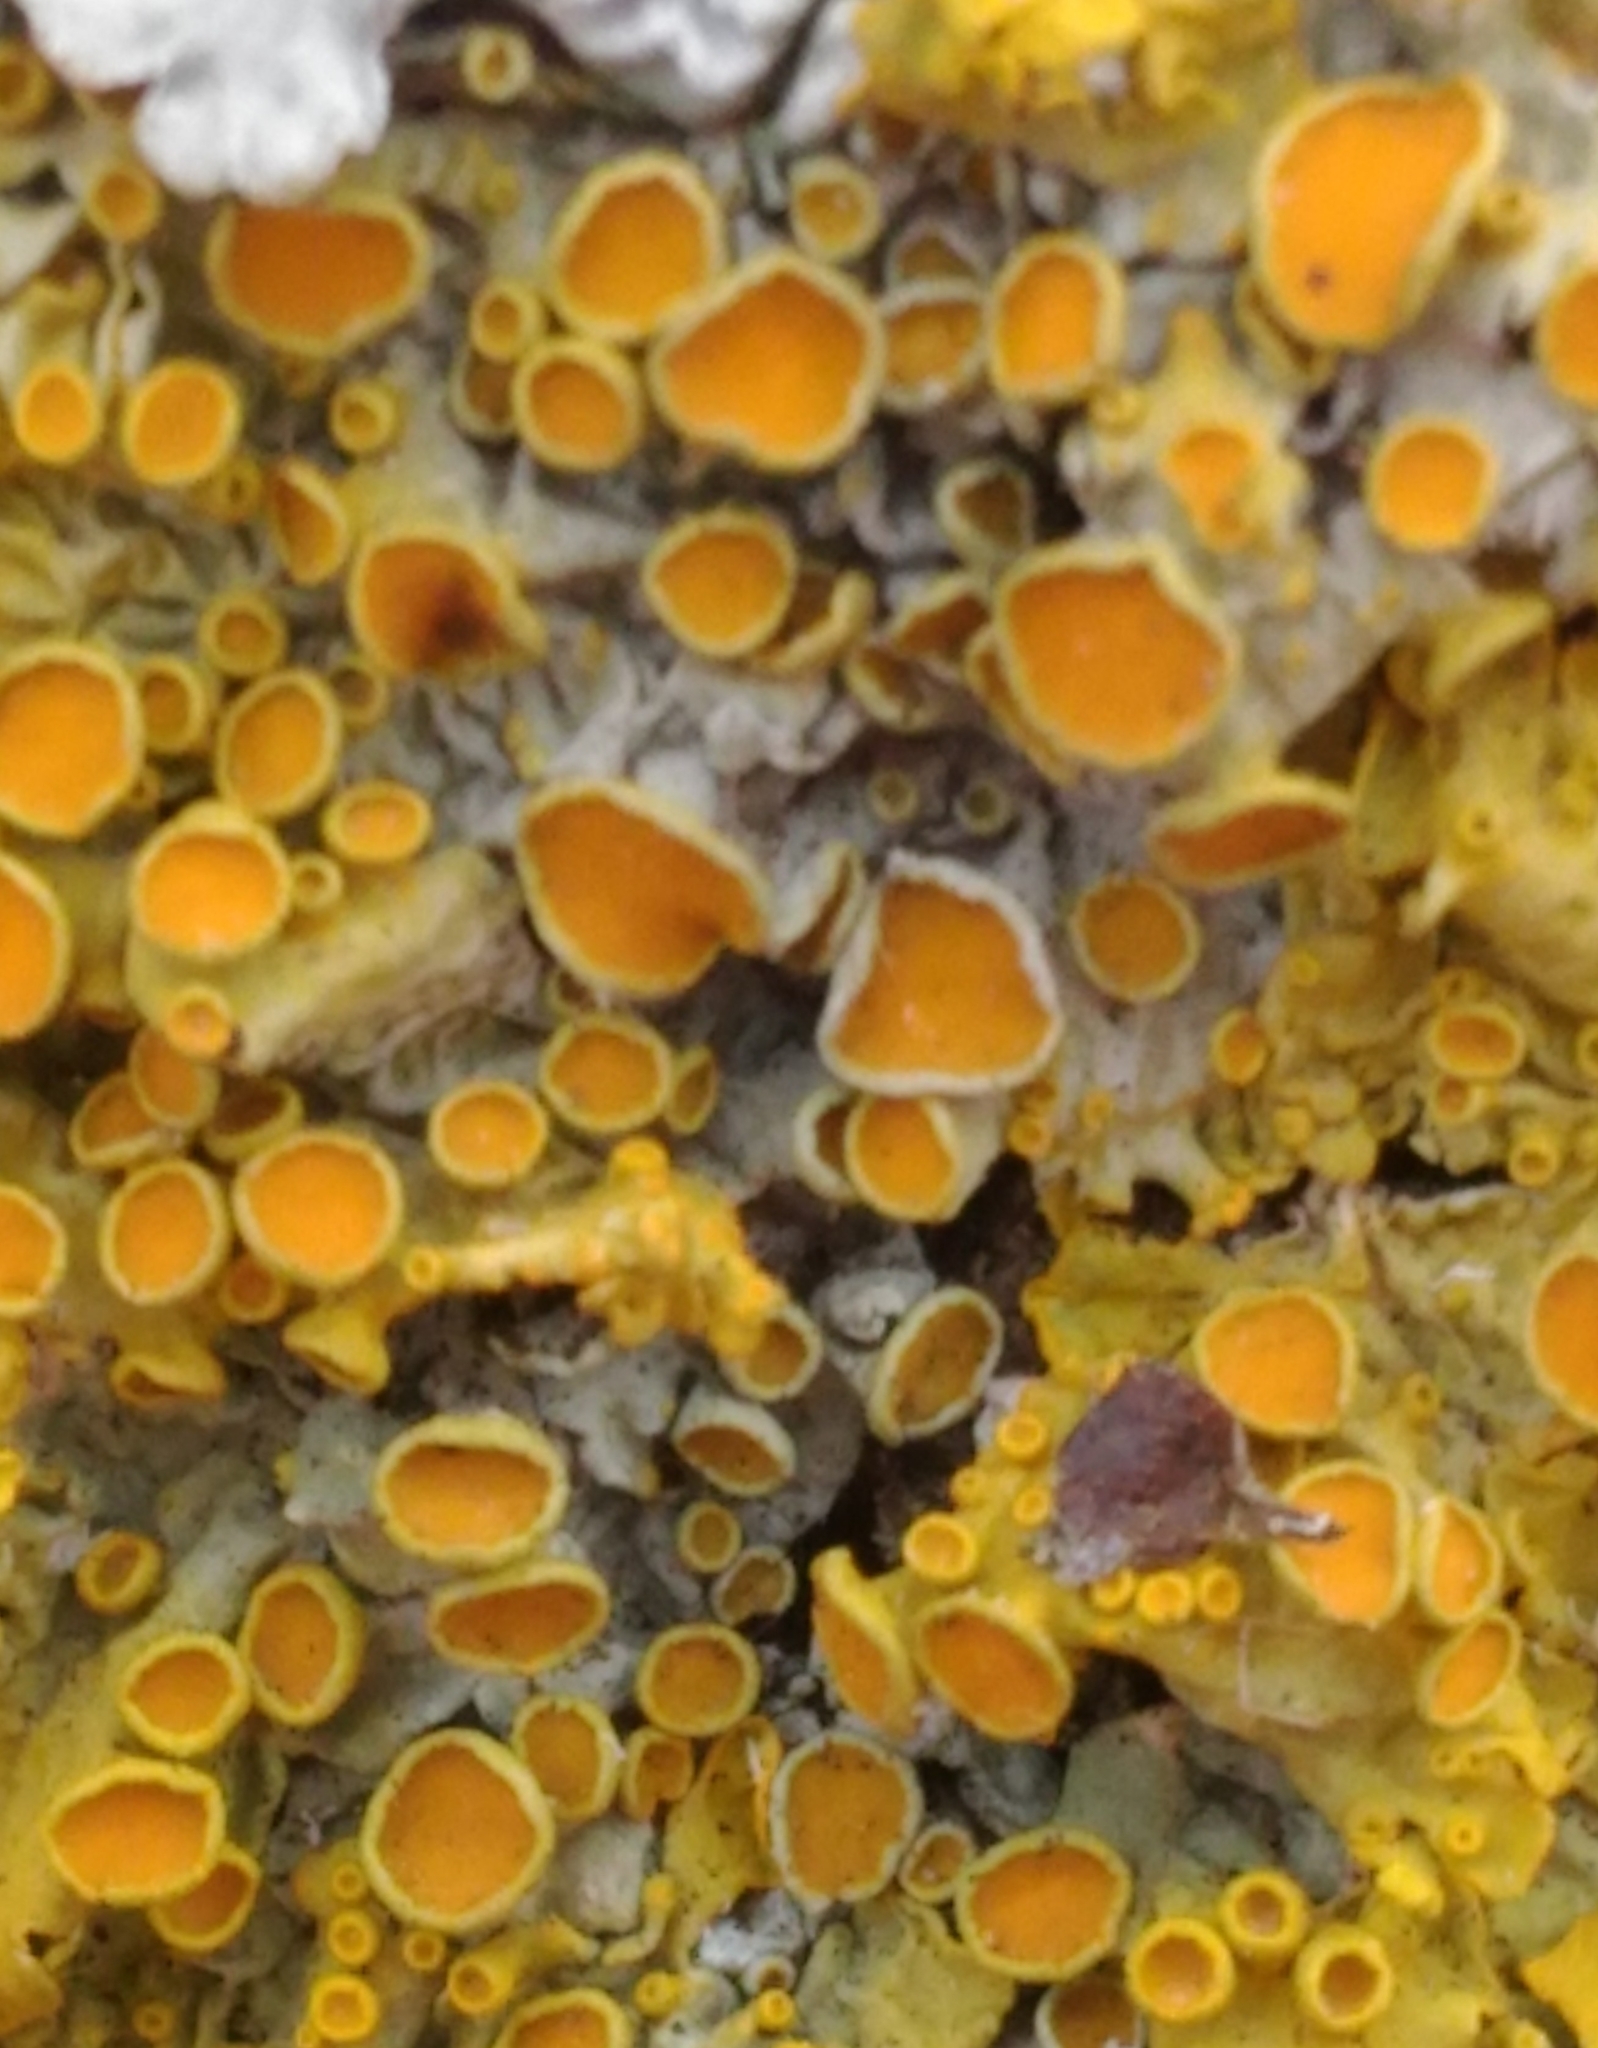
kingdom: Fungi
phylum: Ascomycota
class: Lecanoromycetes
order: Teloschistales
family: Teloschistaceae
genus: Xanthoria
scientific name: Xanthoria parietina
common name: Common orange lichen
